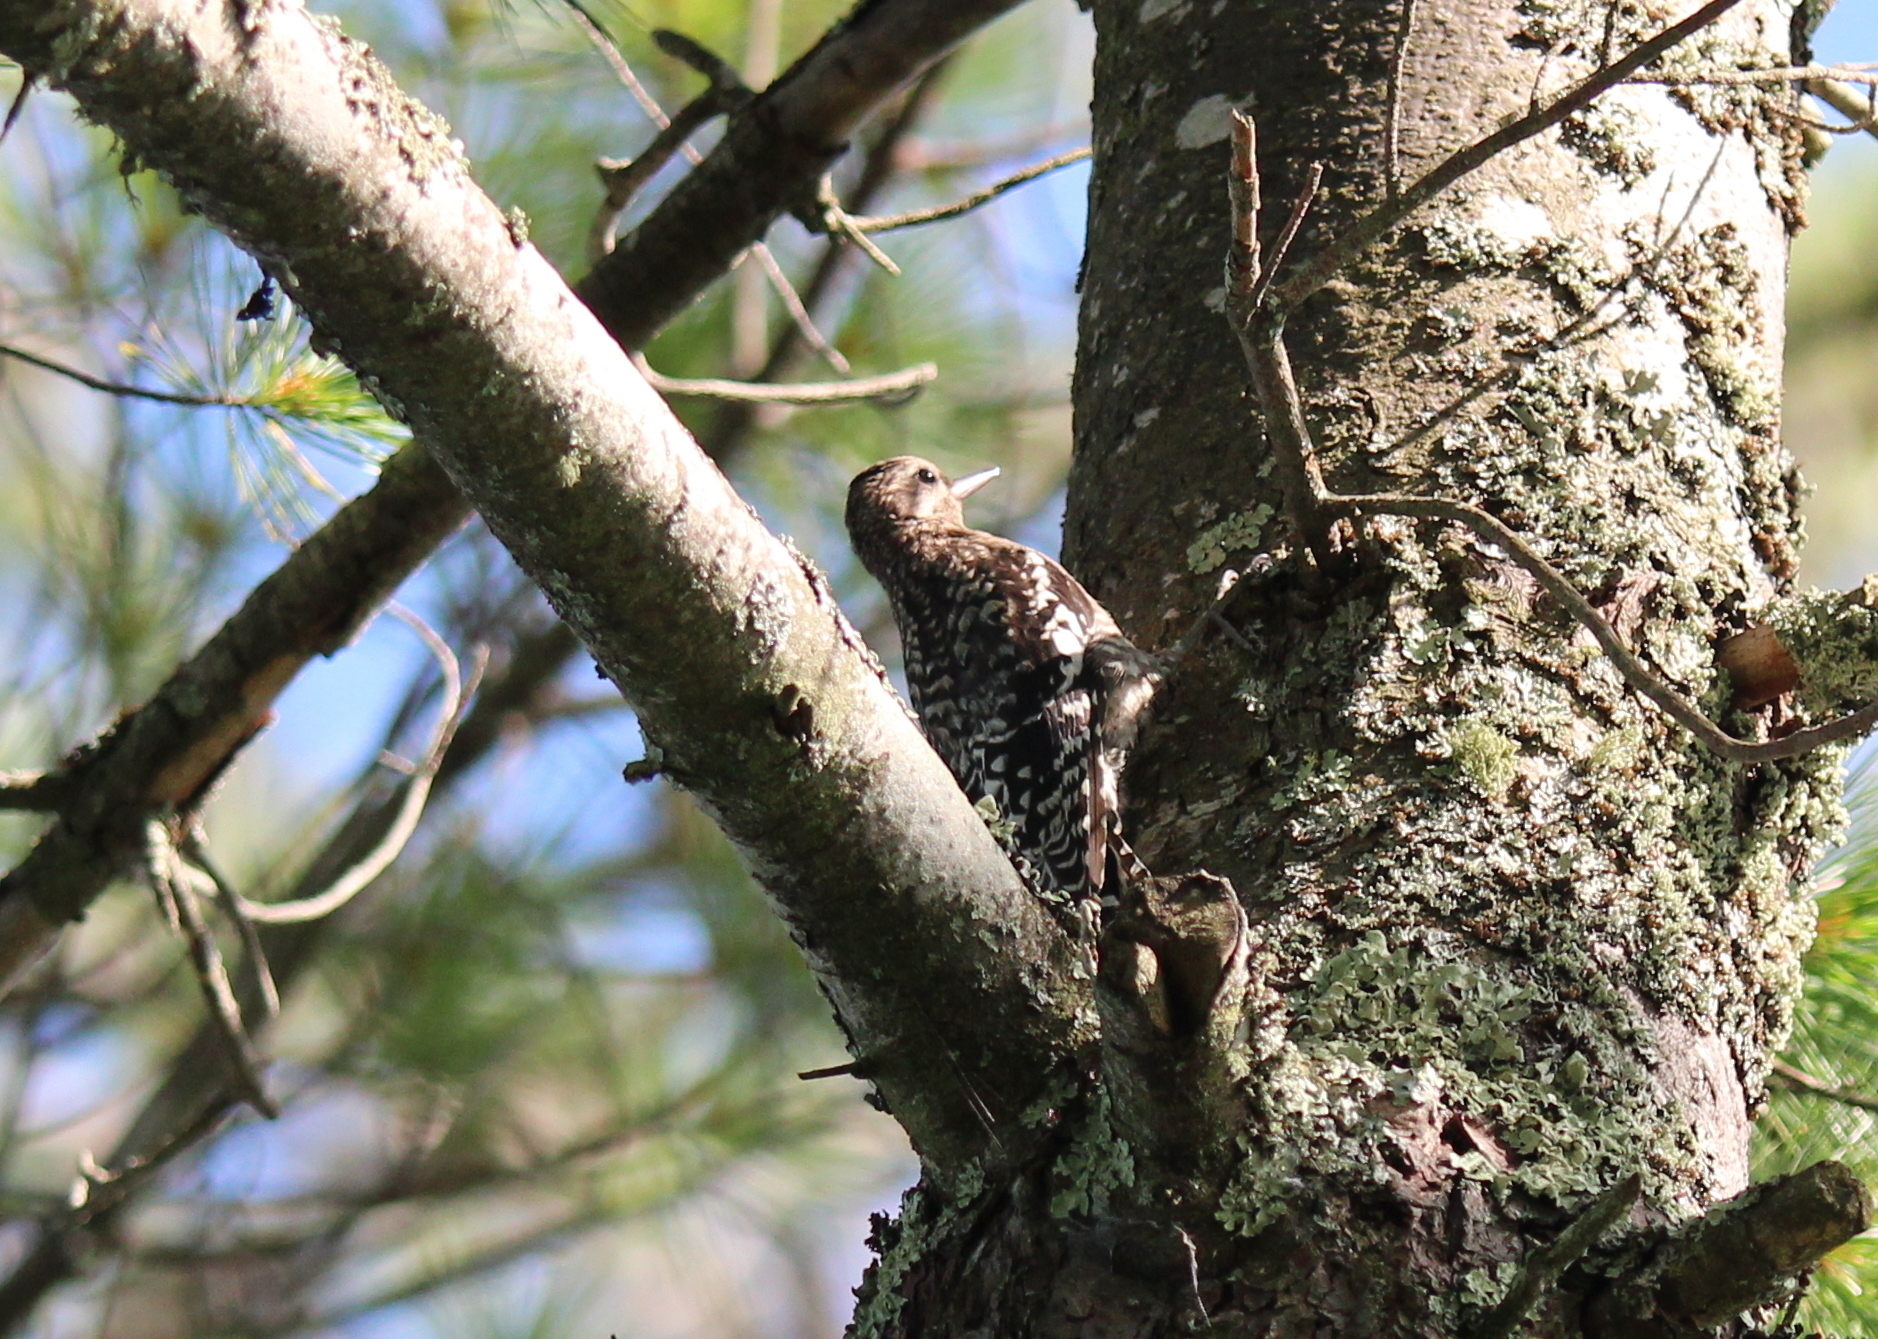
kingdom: Animalia
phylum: Chordata
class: Aves
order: Piciformes
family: Picidae
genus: Sphyrapicus
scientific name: Sphyrapicus varius
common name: Yellow-bellied sapsucker
